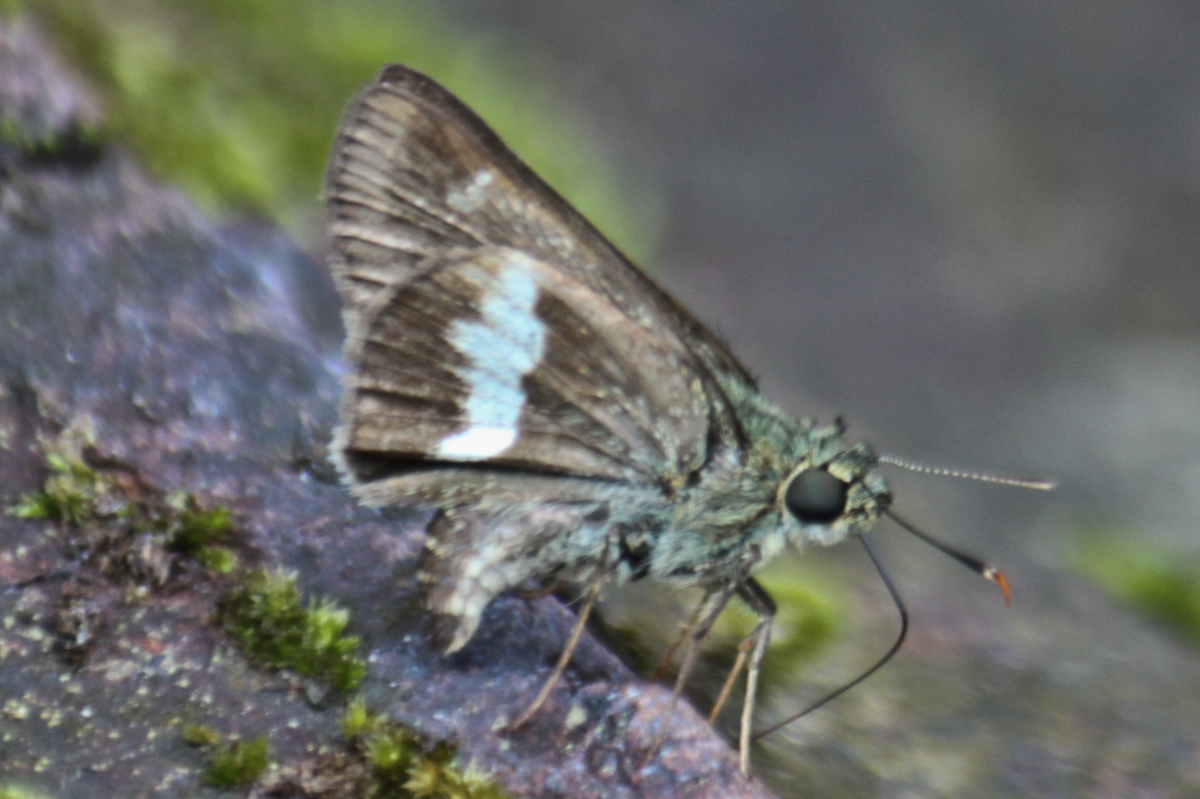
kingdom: Animalia
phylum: Arthropoda
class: Insecta
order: Lepidoptera
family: Hesperiidae
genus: Halpe
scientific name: Halpe zola
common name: Long-banded ace
